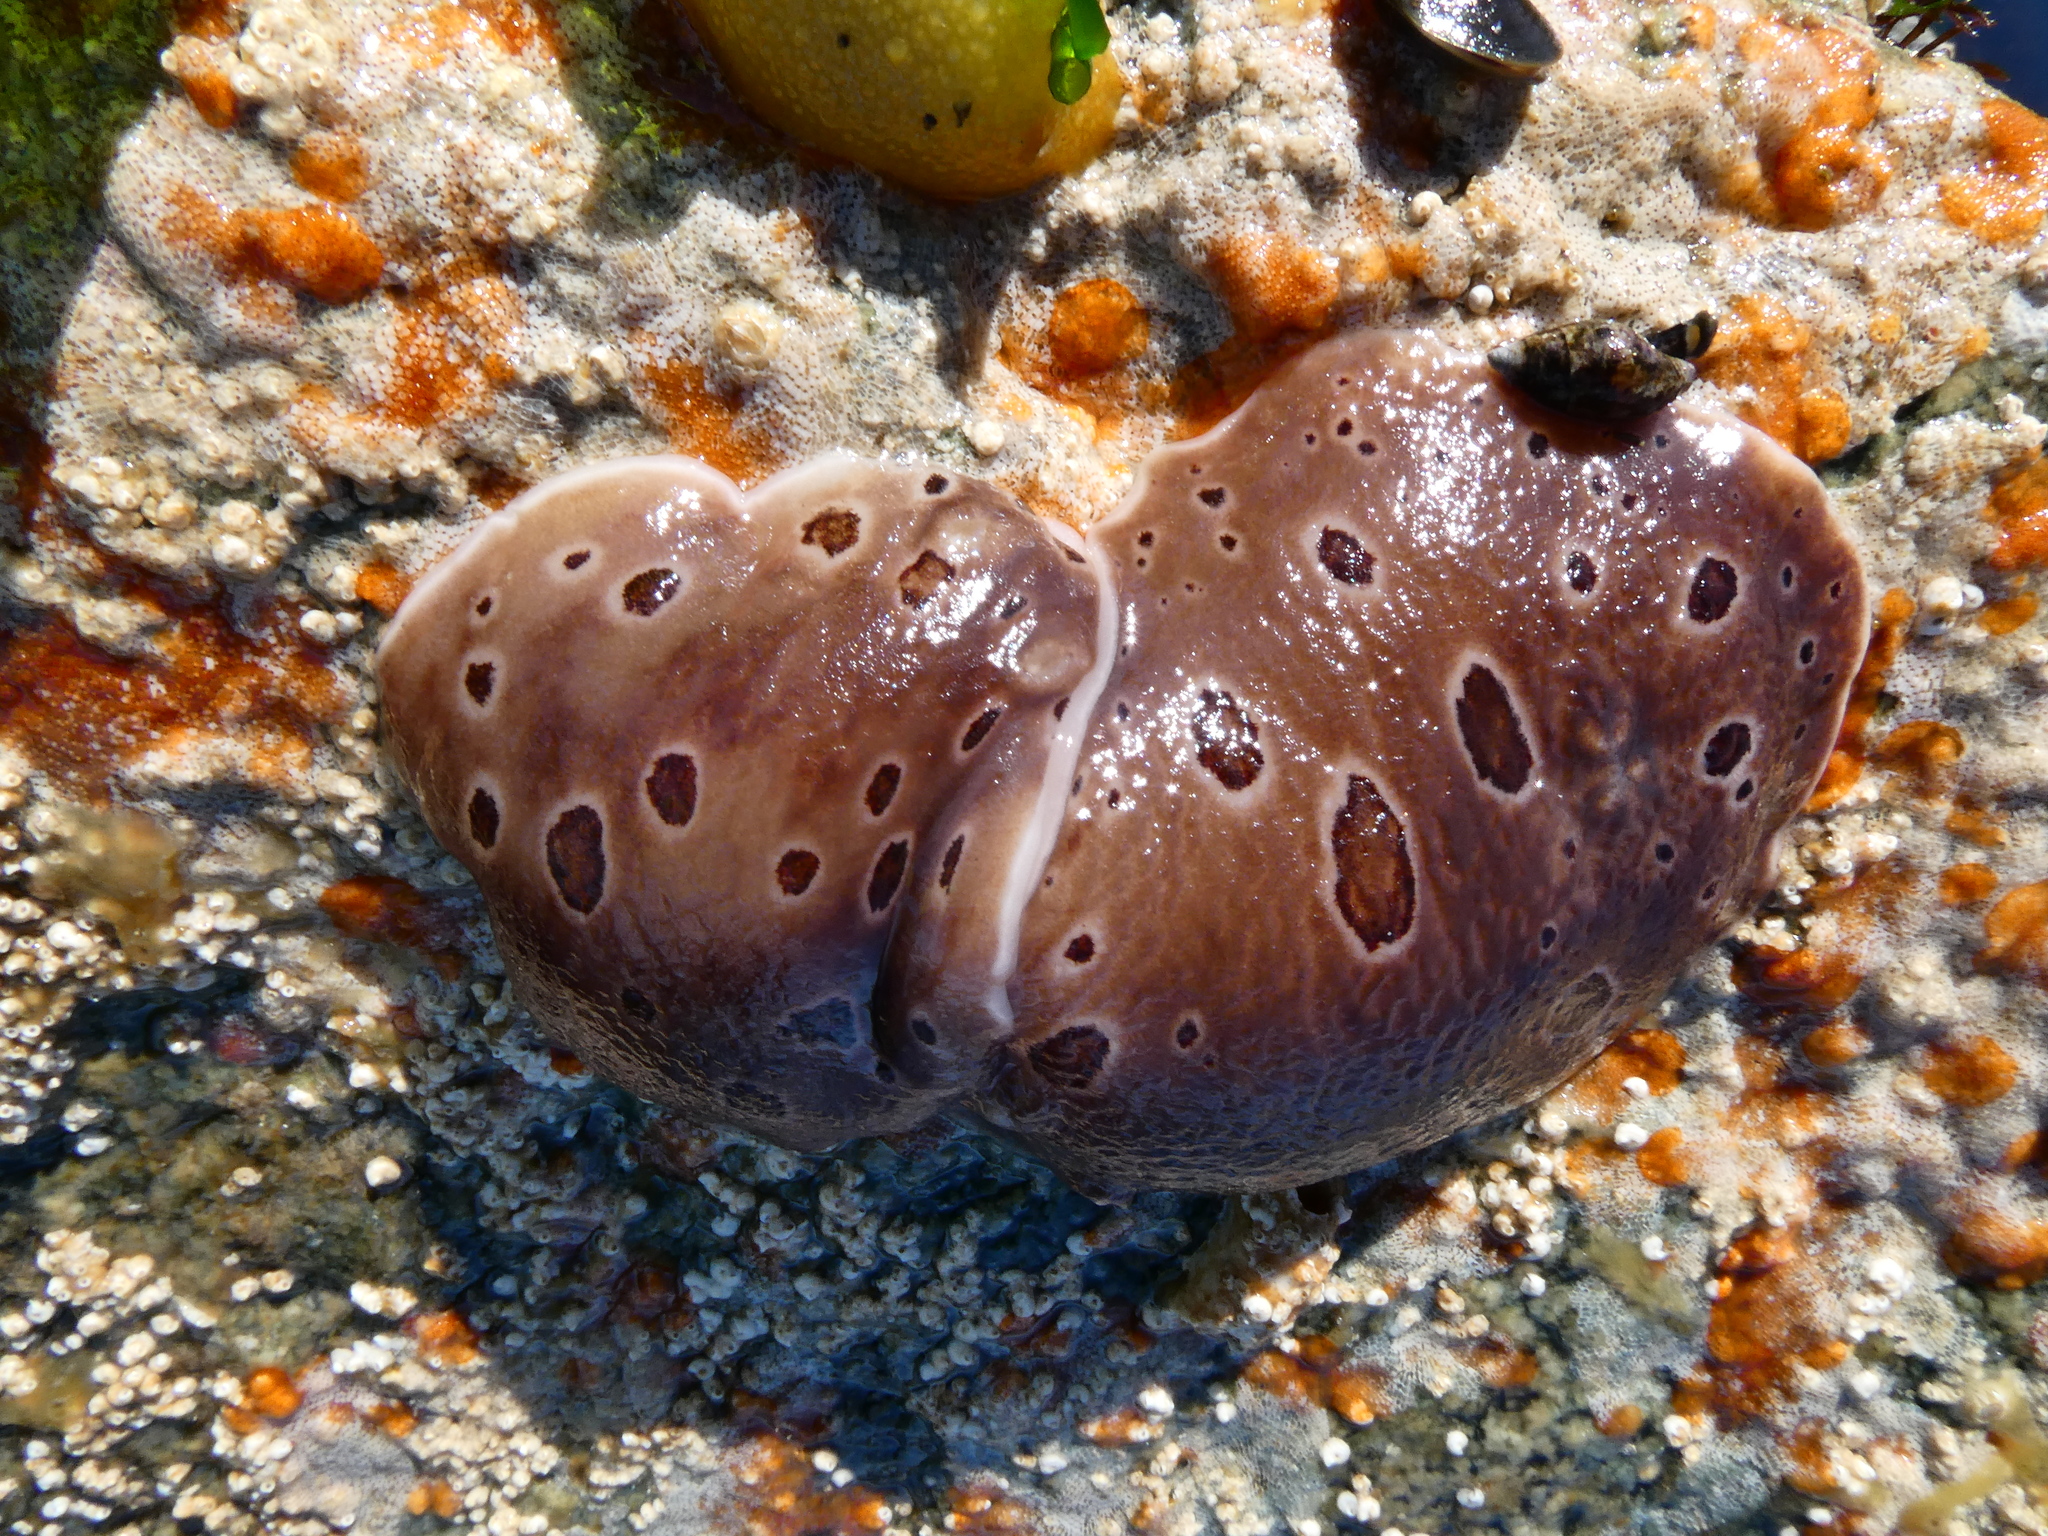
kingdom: Animalia
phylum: Mollusca
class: Gastropoda
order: Nudibranchia
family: Discodorididae
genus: Diaulula
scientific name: Diaulula odonoghuei
